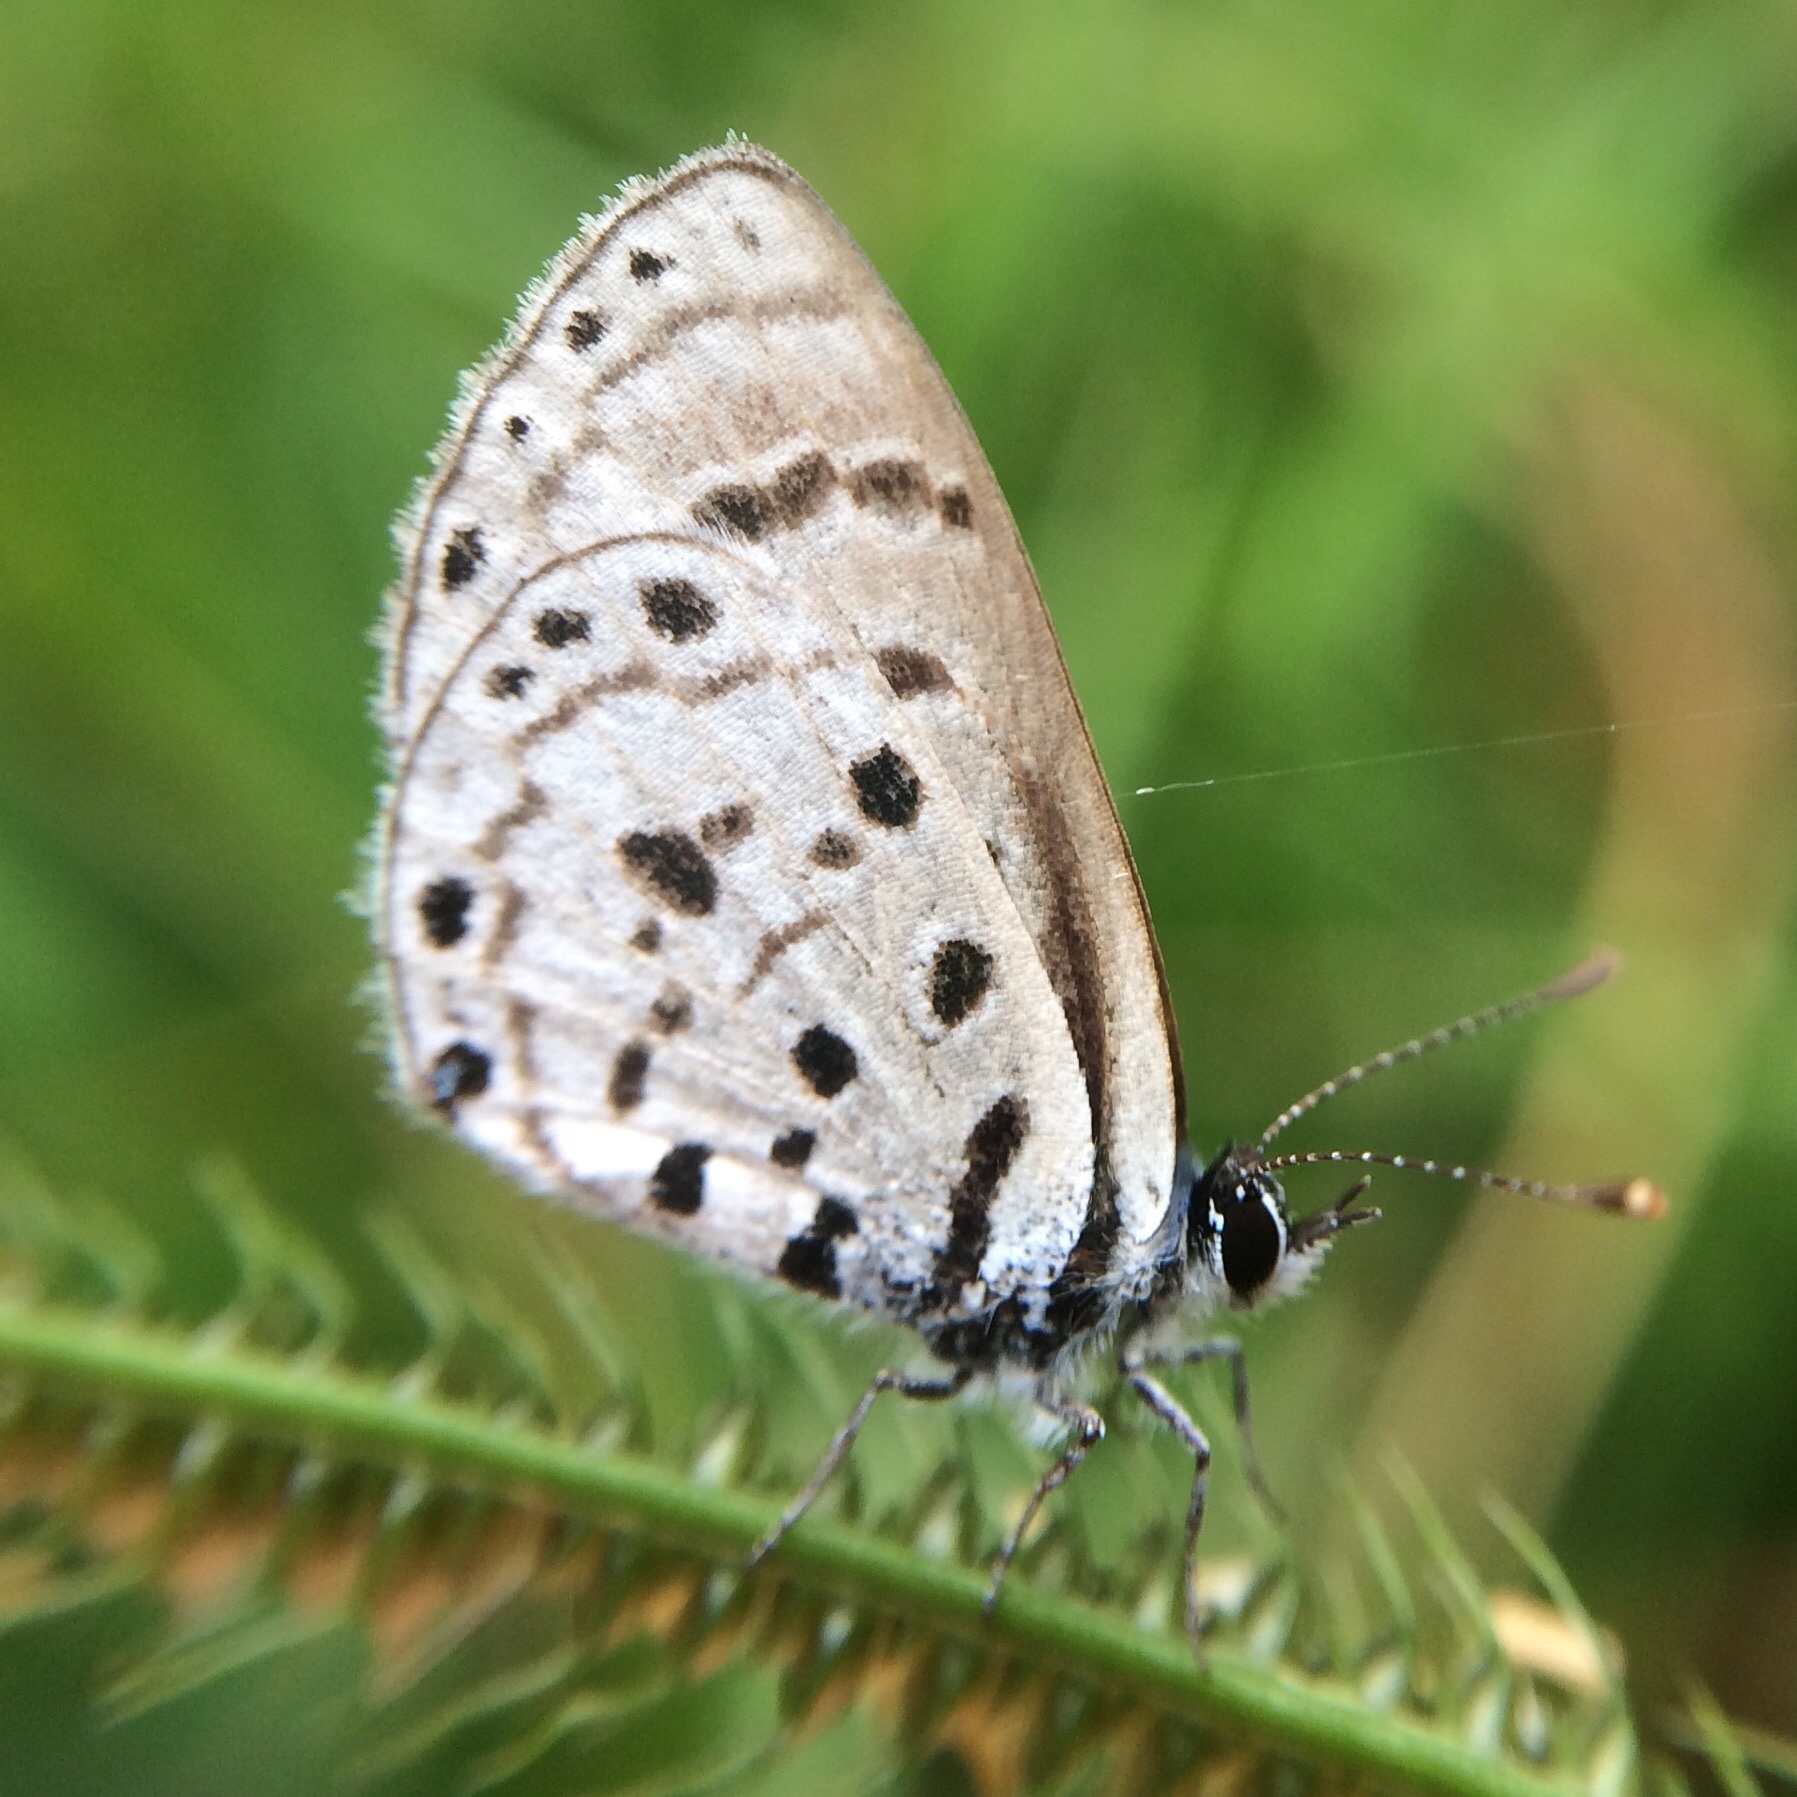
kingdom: Animalia
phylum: Arthropoda
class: Insecta
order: Lepidoptera
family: Lycaenidae
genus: Azanus
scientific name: Azanus moriqua
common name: Thorn-tree babul blue
